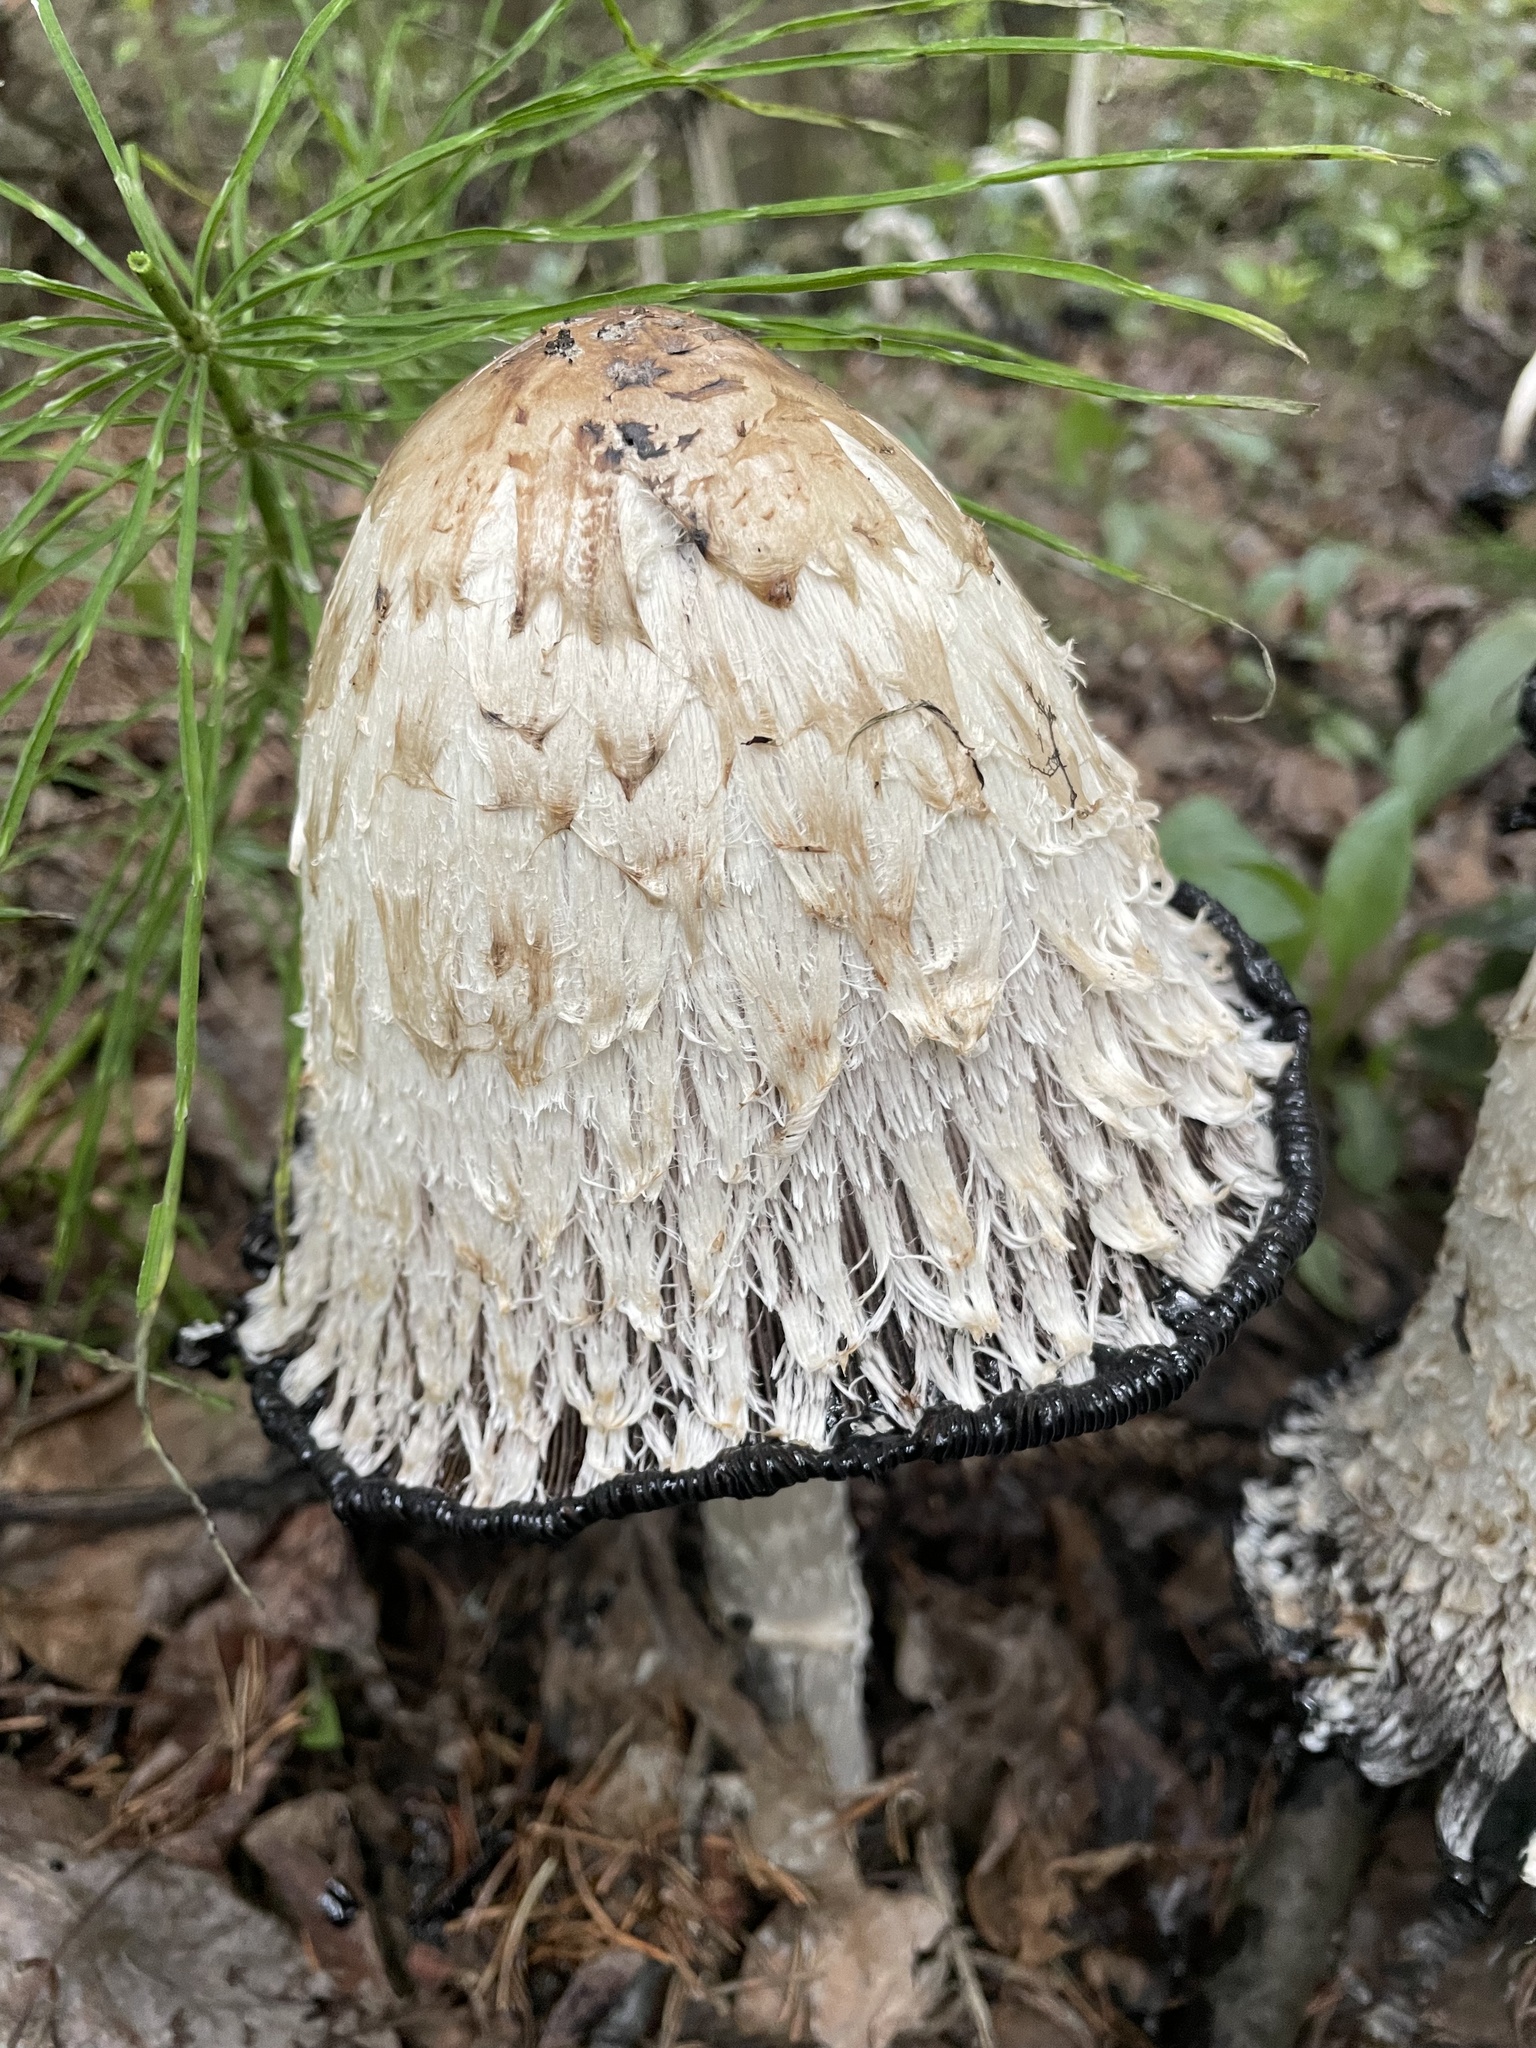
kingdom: Fungi
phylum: Basidiomycota
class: Agaricomycetes
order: Agaricales
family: Agaricaceae
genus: Coprinus
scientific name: Coprinus comatus
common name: Lawyer's wig
